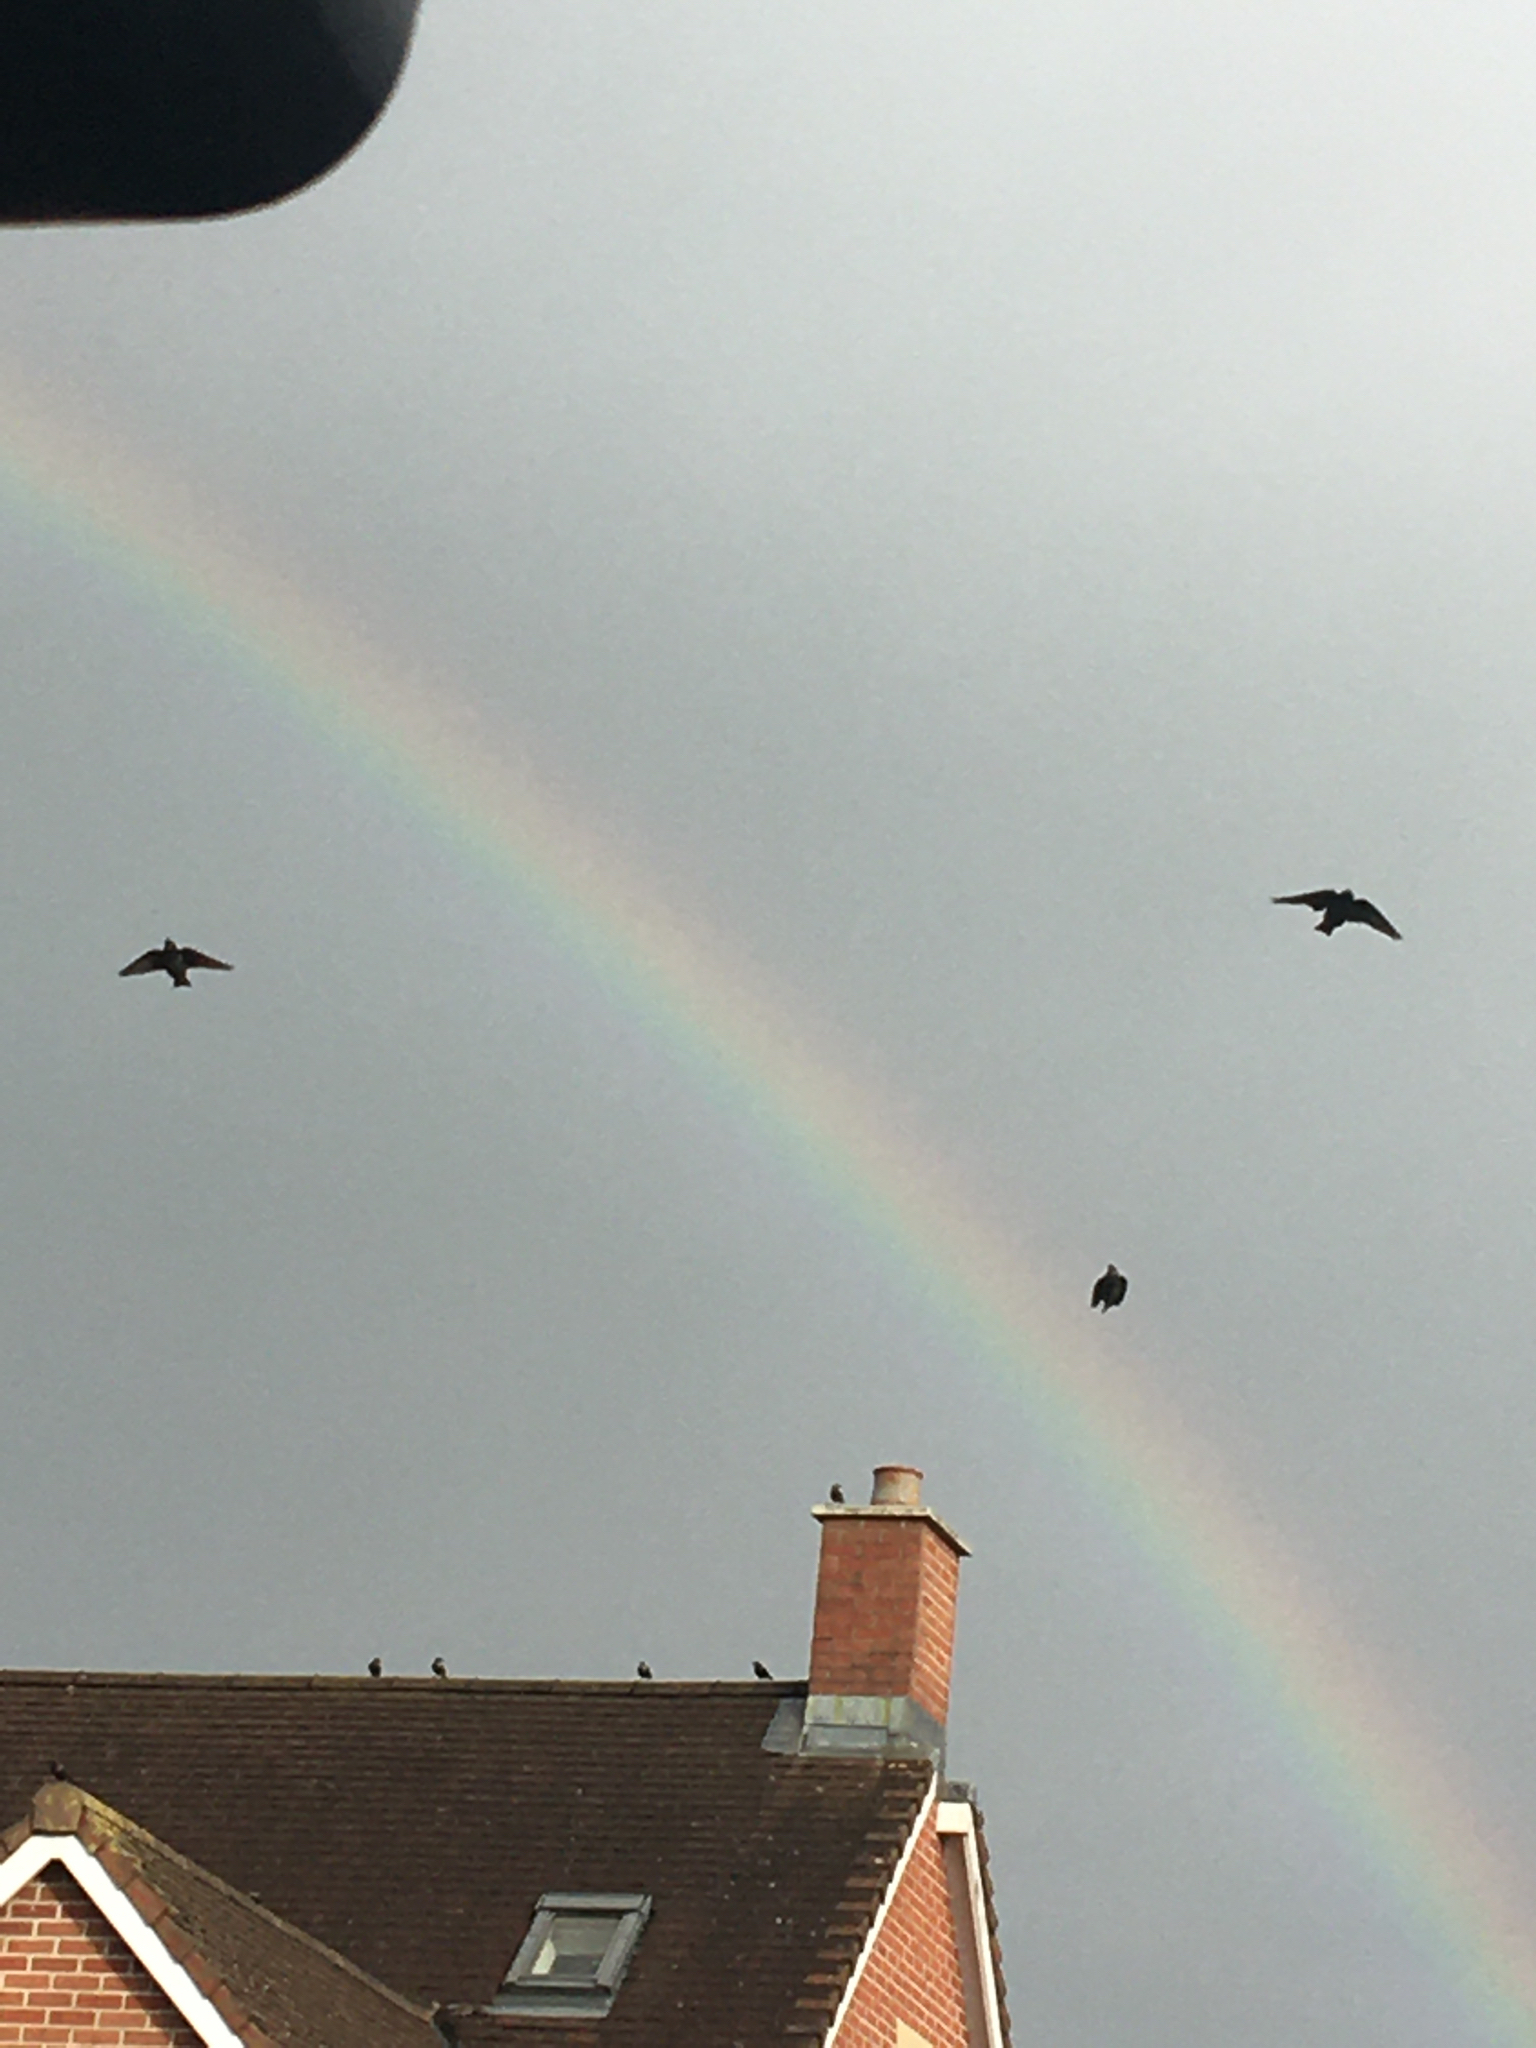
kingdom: Animalia
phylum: Chordata
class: Aves
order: Passeriformes
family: Sturnidae
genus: Sturnus
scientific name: Sturnus vulgaris
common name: Common starling
